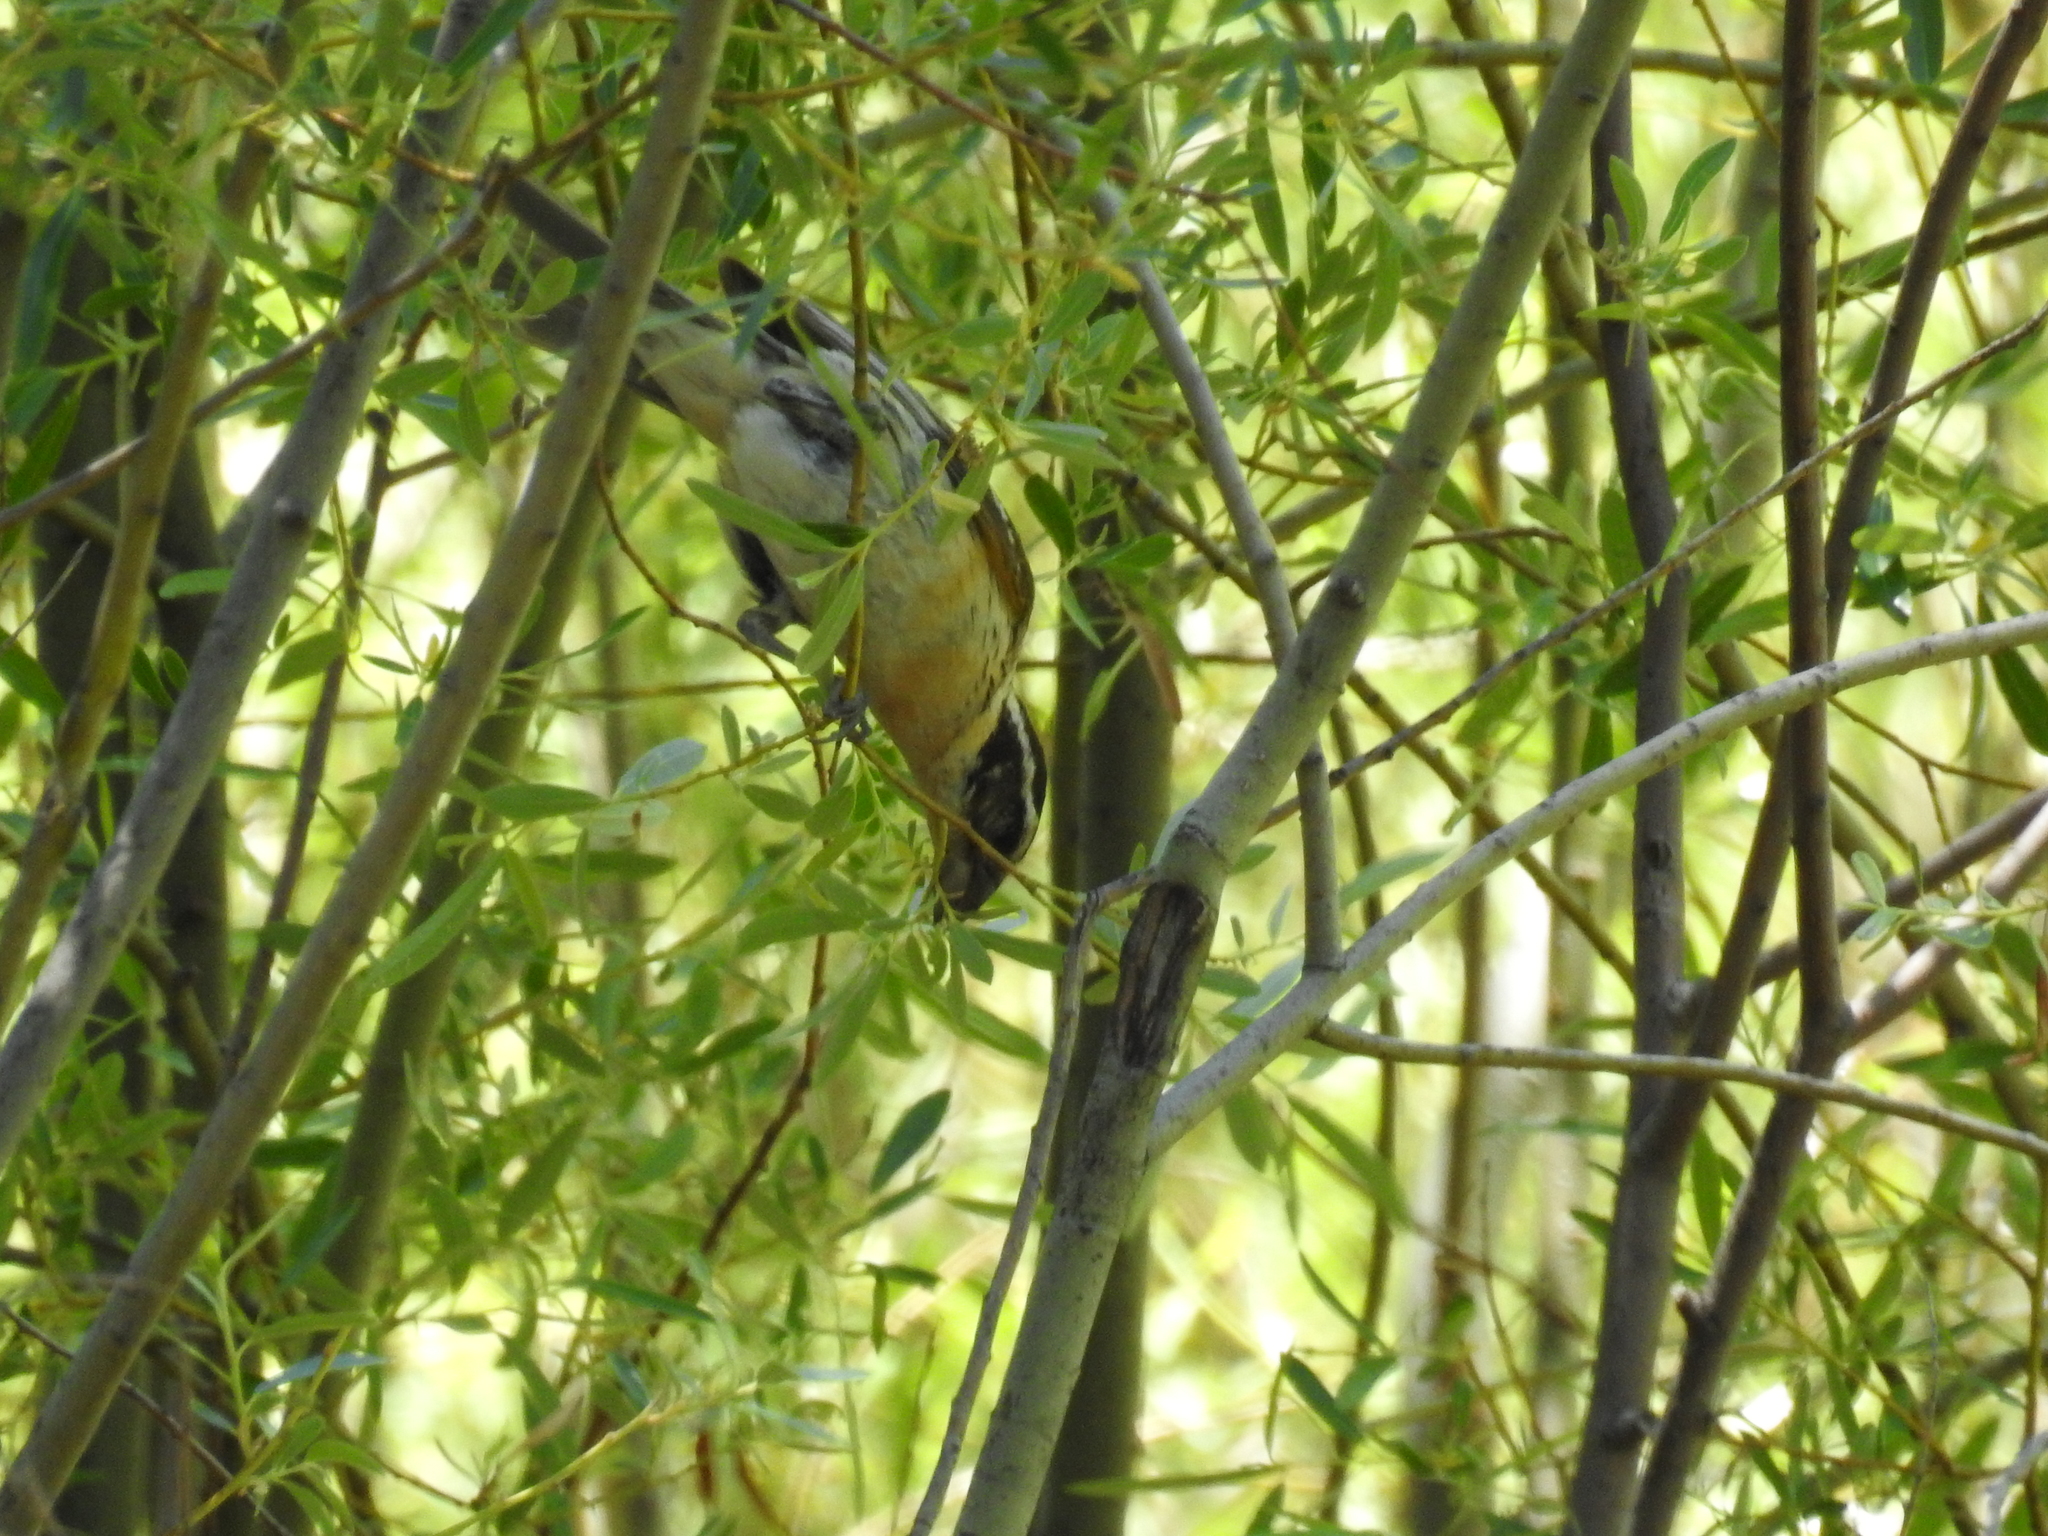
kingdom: Animalia
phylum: Chordata
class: Aves
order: Passeriformes
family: Cardinalidae
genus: Pheucticus
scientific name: Pheucticus melanocephalus
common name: Black-headed grosbeak
